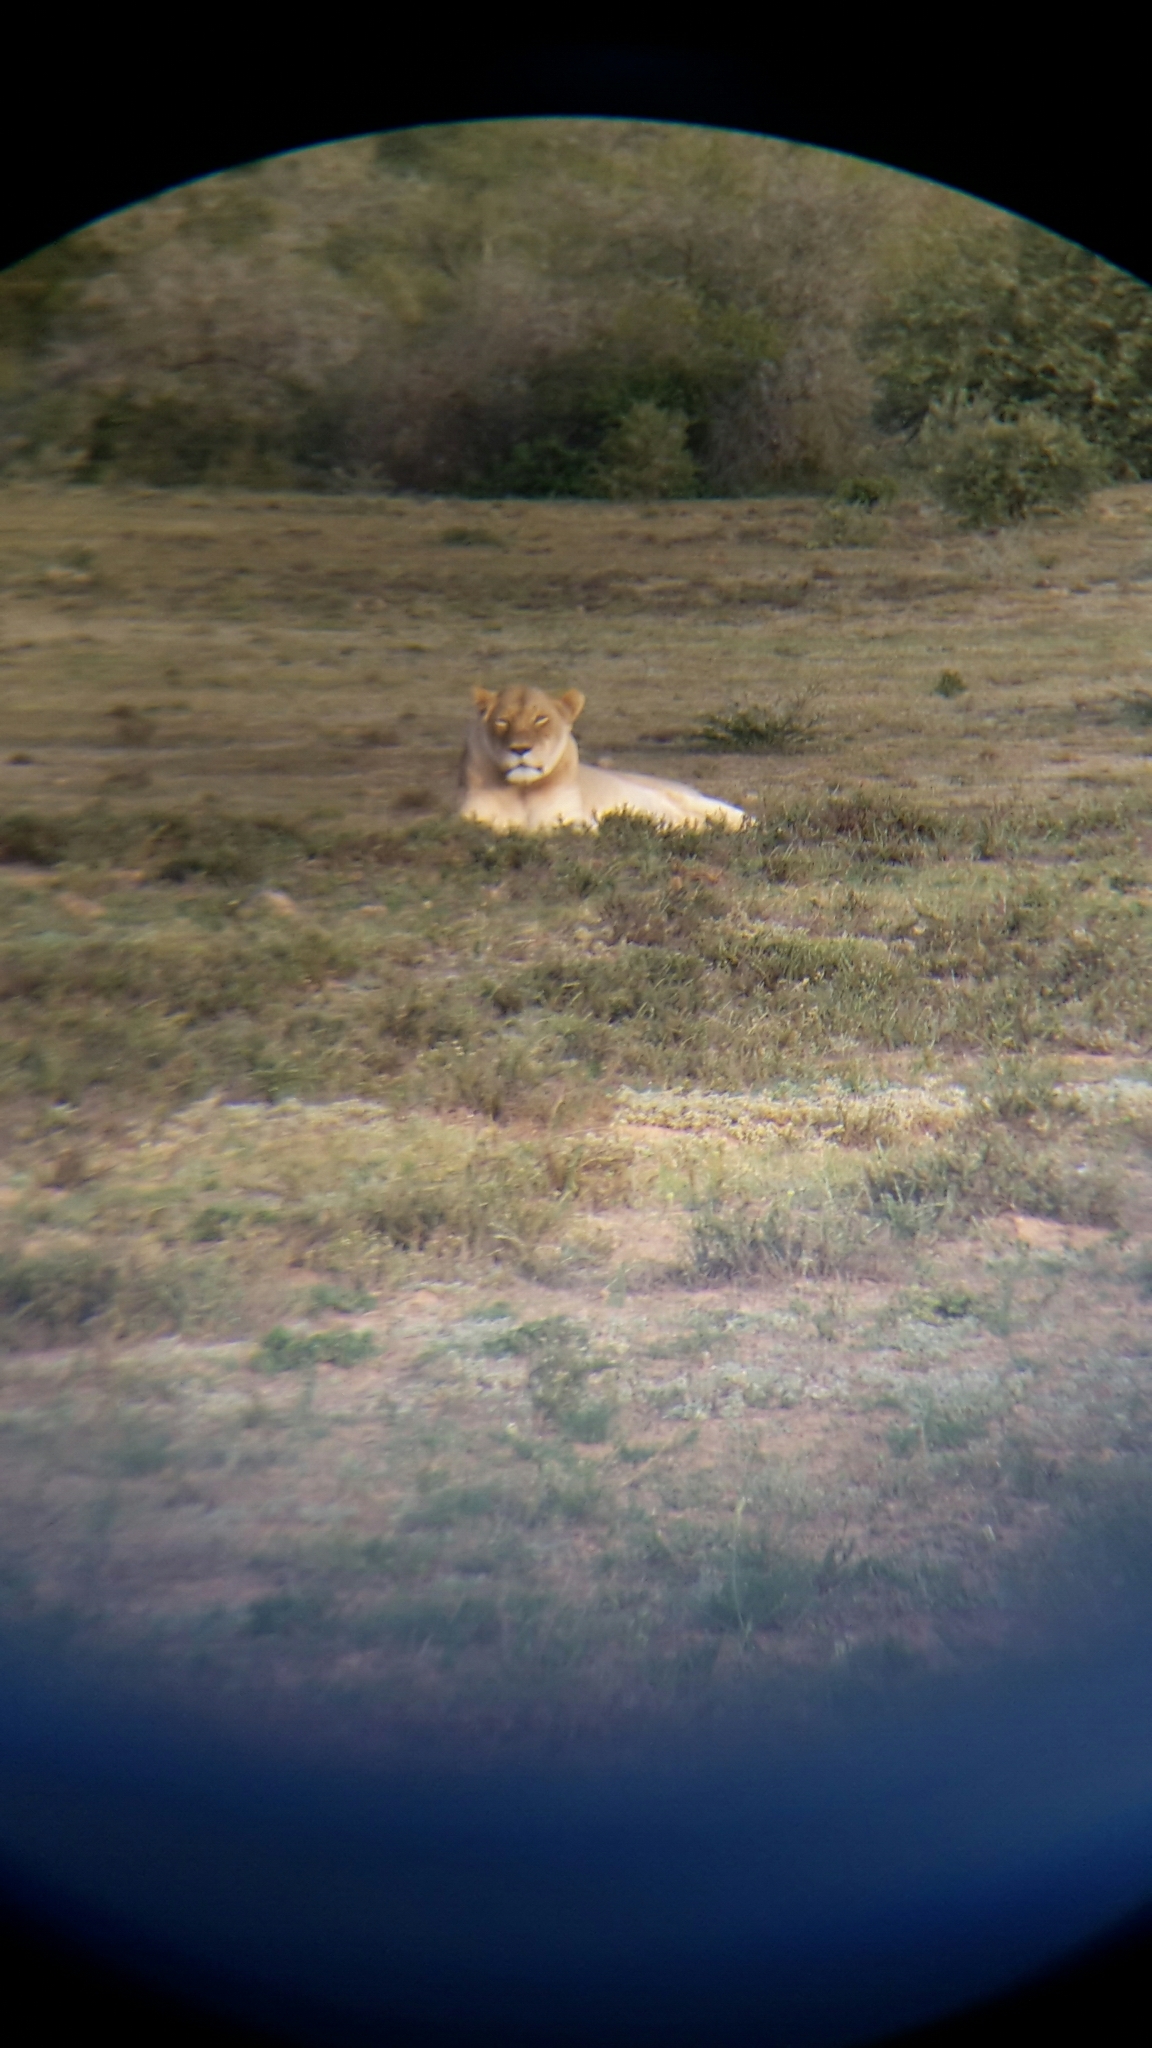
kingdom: Animalia
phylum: Chordata
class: Mammalia
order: Carnivora
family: Felidae
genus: Panthera
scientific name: Panthera leo
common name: Lion
